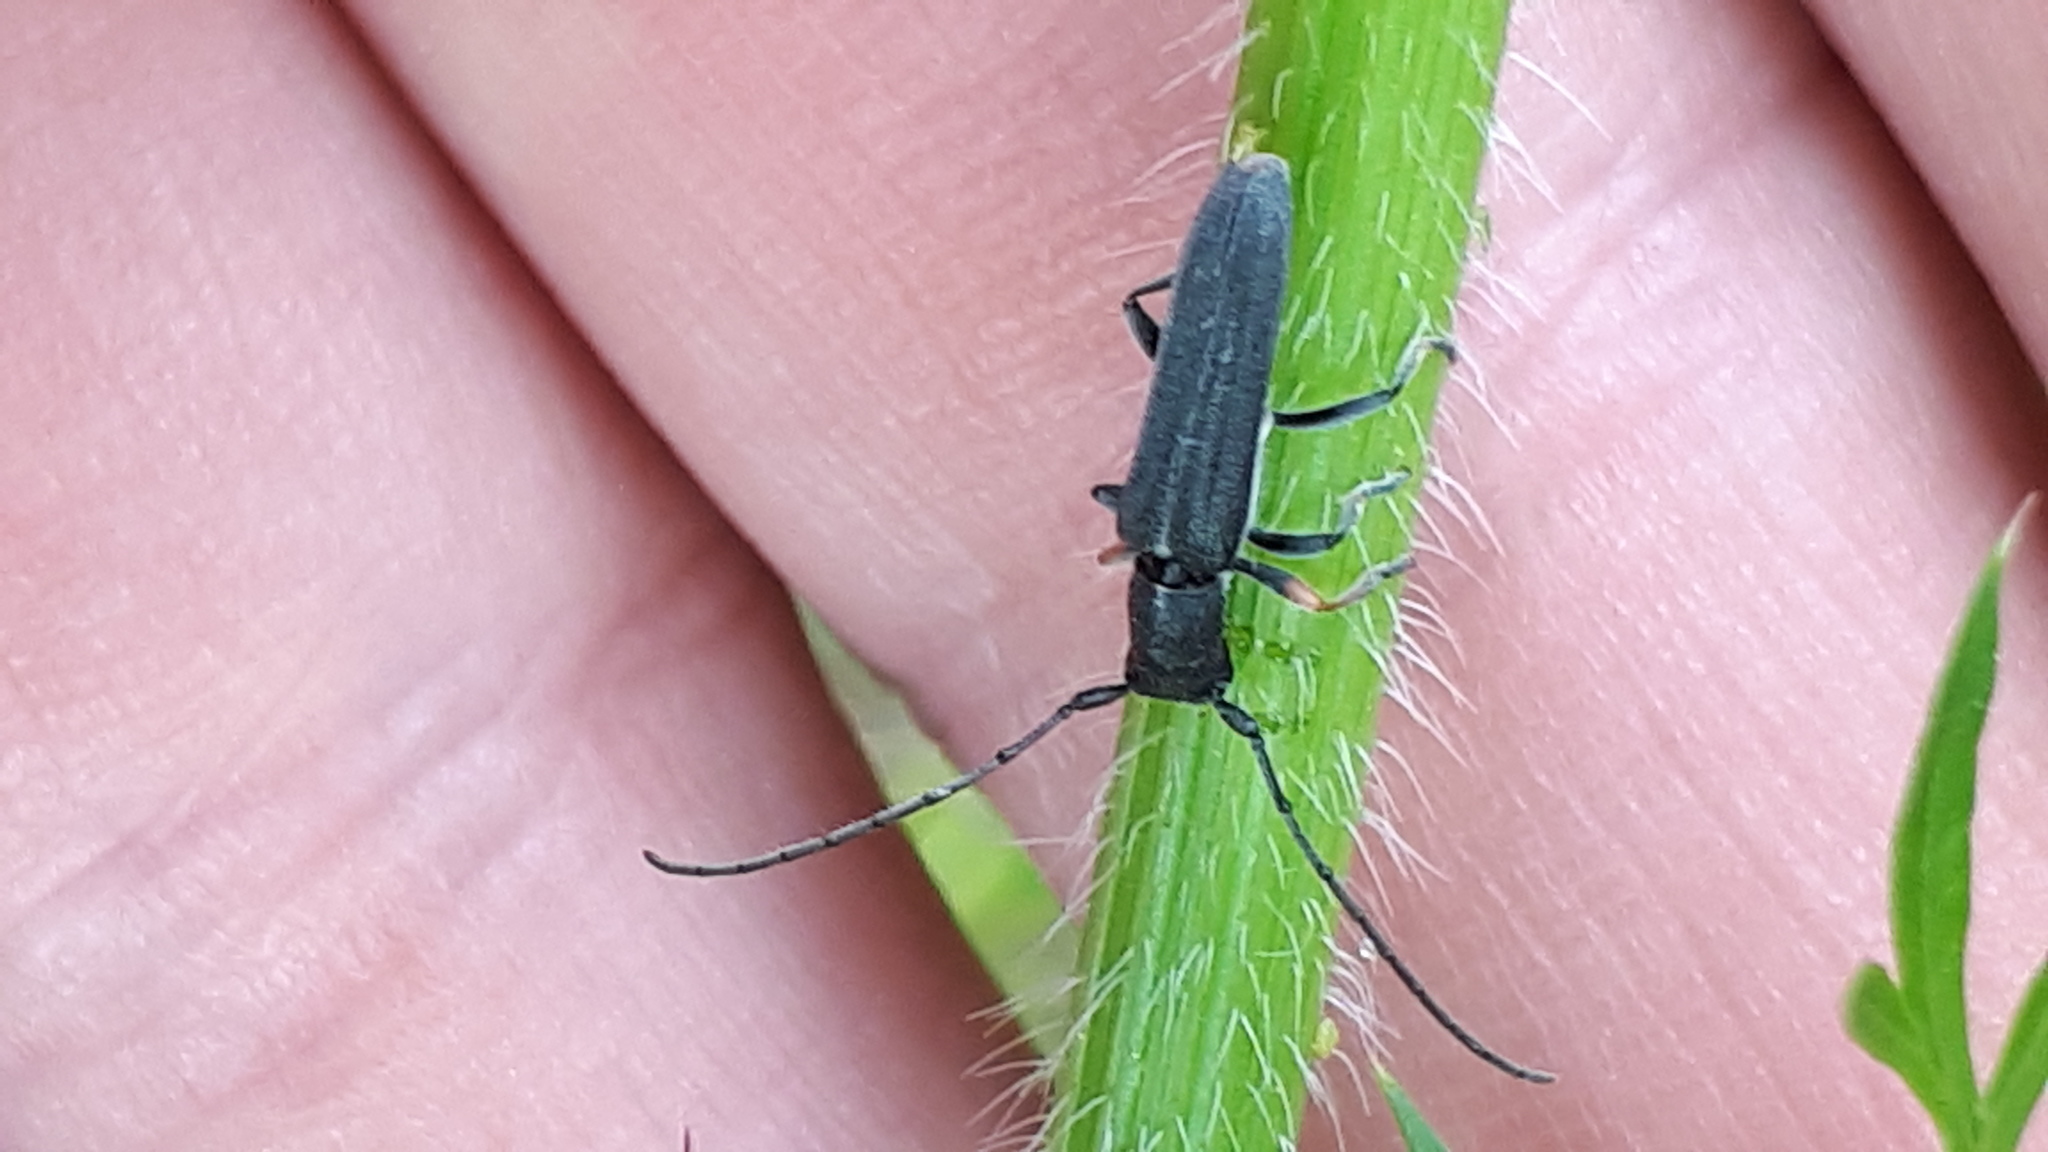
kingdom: Animalia
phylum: Arthropoda
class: Insecta
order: Coleoptera
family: Cerambycidae
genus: Phytoecia
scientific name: Phytoecia cylindrica
